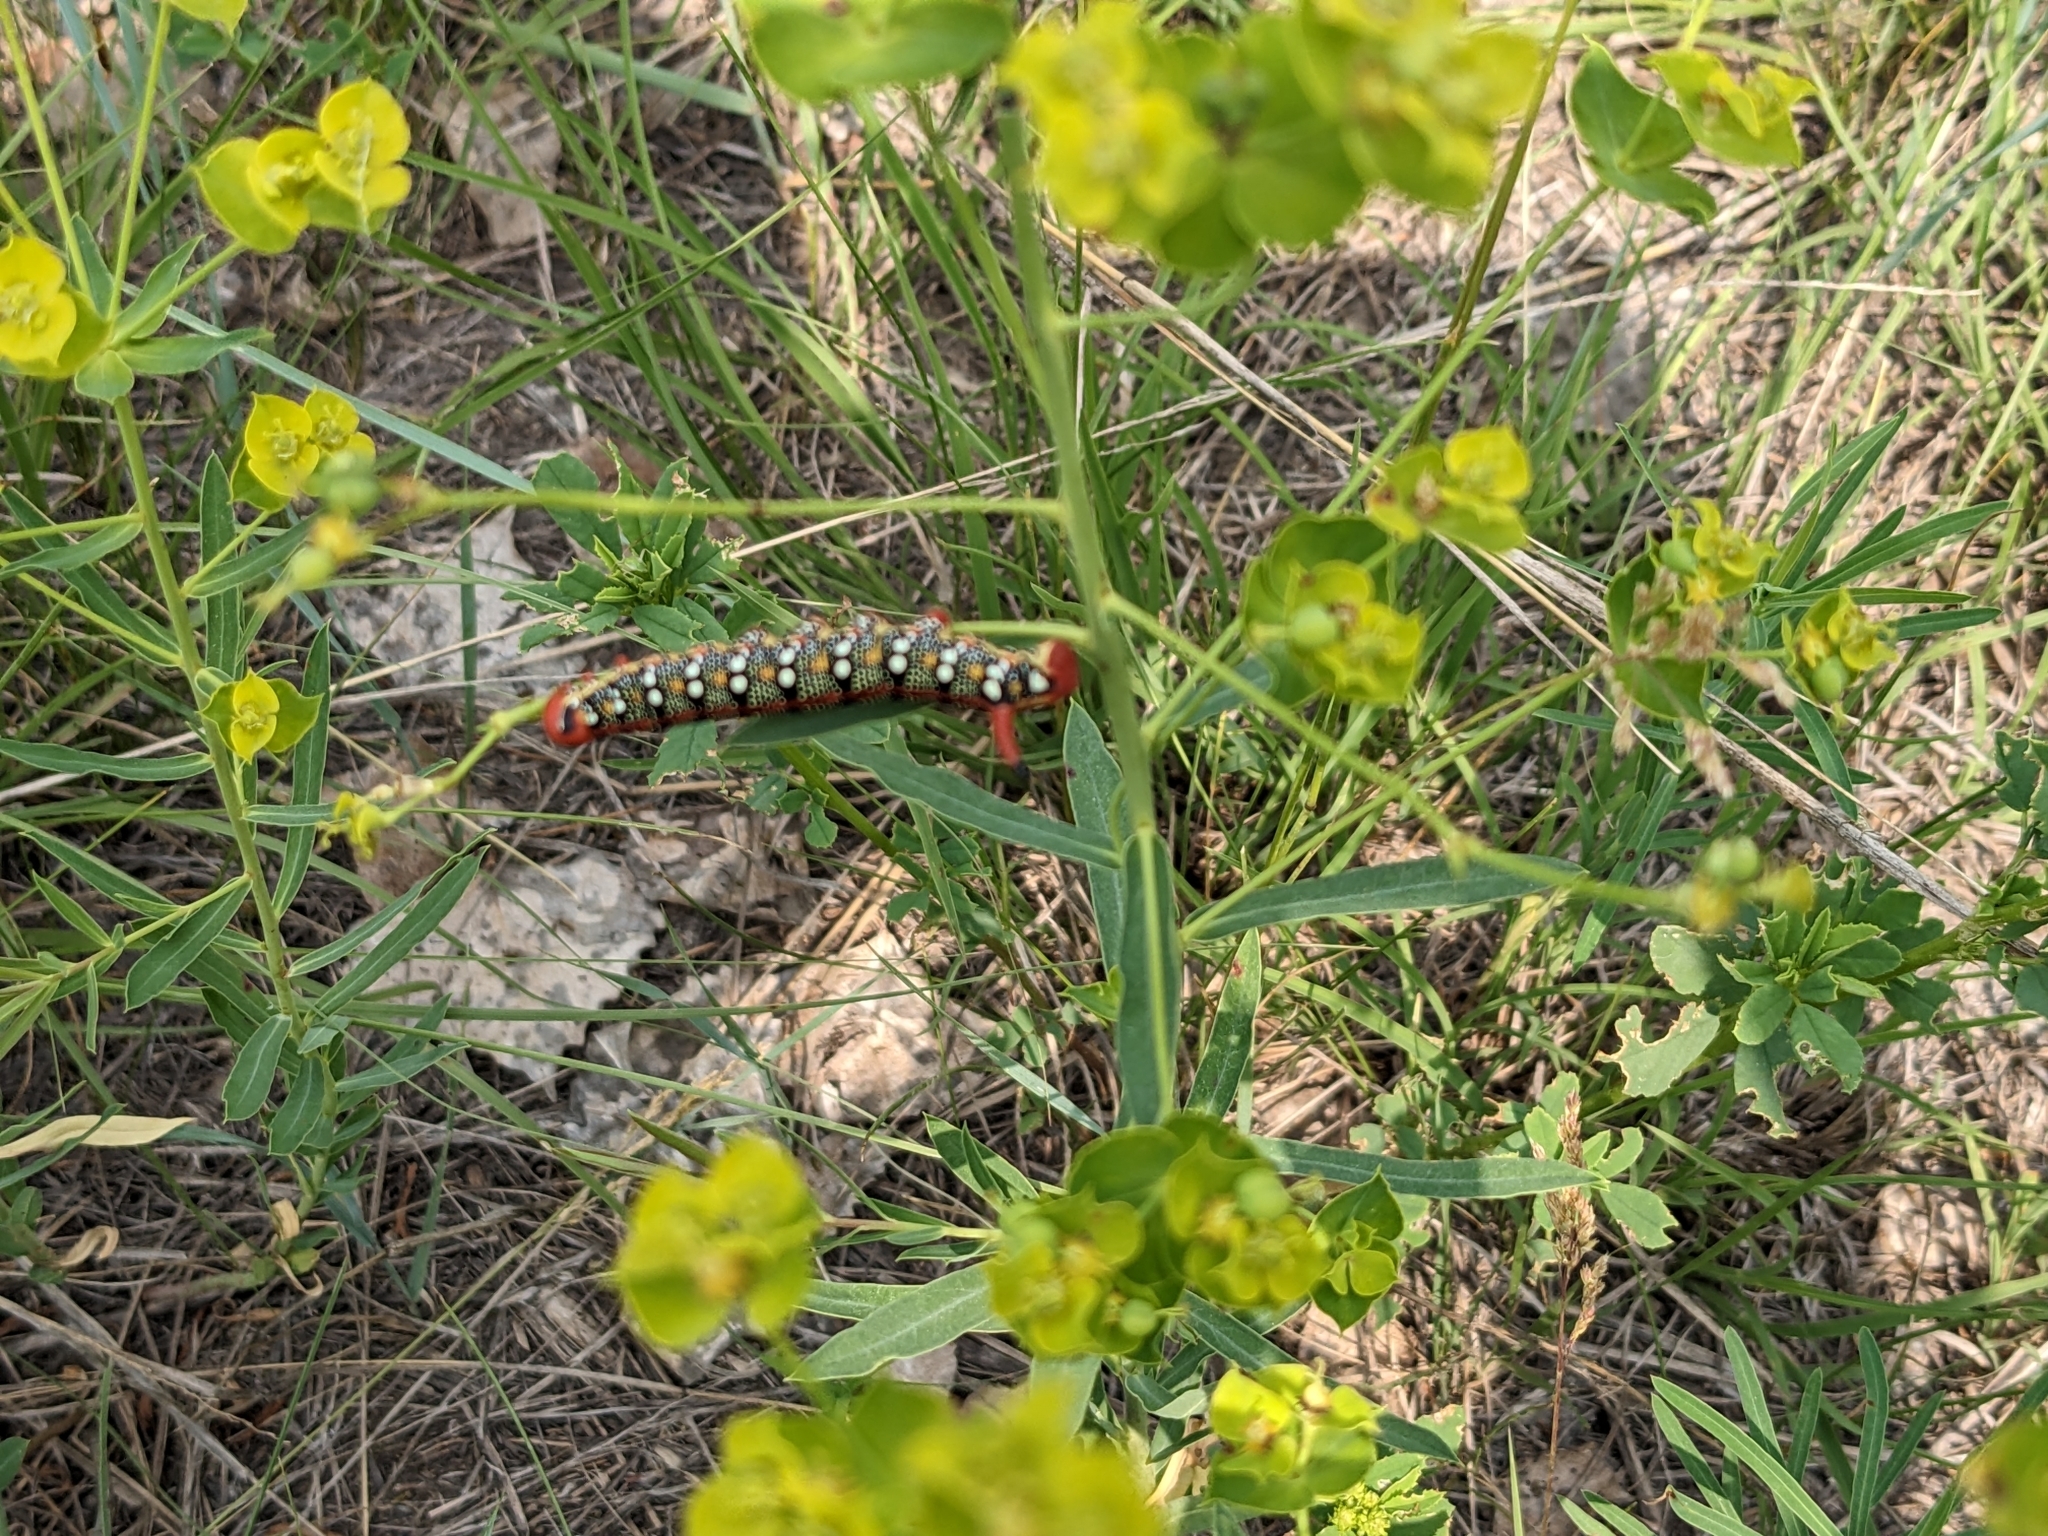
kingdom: Animalia
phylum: Arthropoda
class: Insecta
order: Lepidoptera
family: Sphingidae
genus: Hyles
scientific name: Hyles euphorbiae
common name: Spurge hawk-moth
